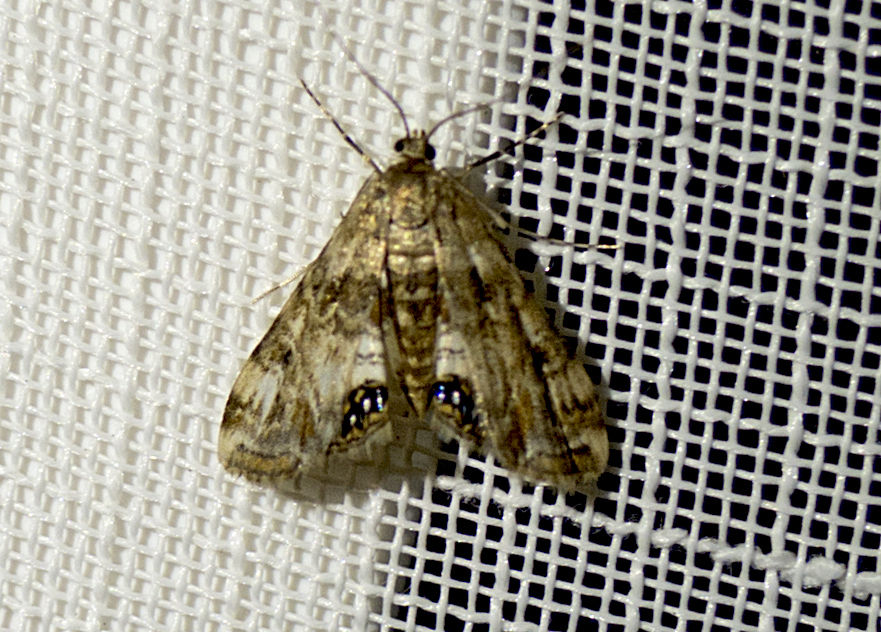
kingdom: Animalia
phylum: Arthropoda
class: Insecta
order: Lepidoptera
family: Crambidae
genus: Cataclysta
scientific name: Cataclysta lemnata
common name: Small china-mark
